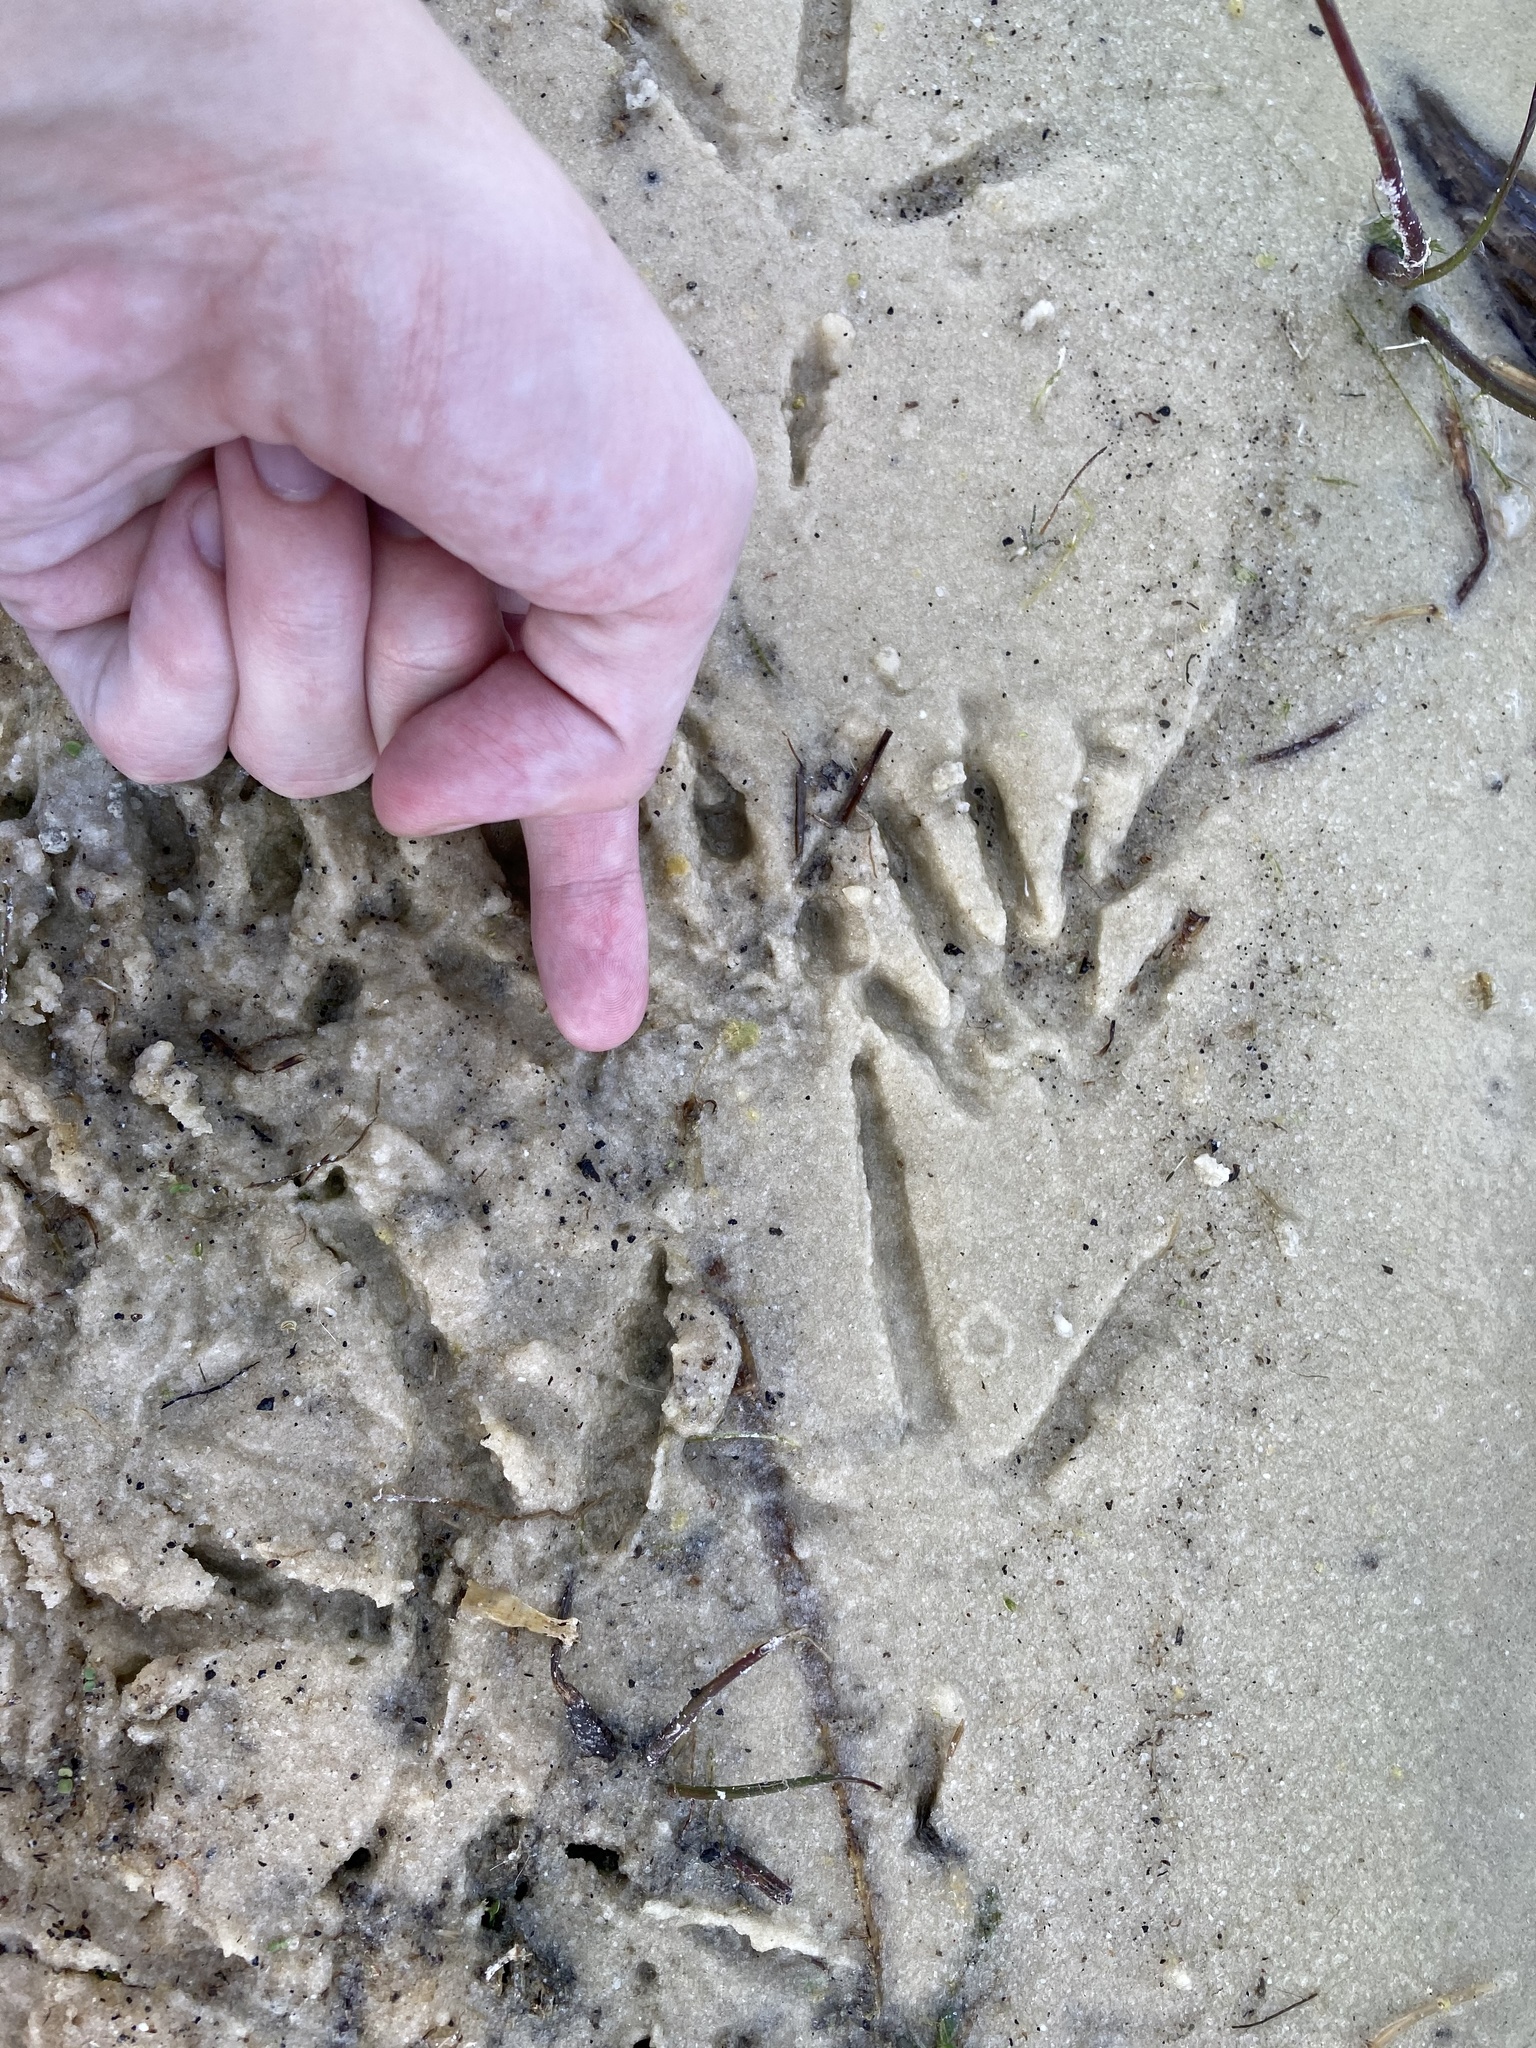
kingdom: Animalia
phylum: Chordata
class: Mammalia
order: Carnivora
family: Procyonidae
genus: Procyon
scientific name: Procyon lotor
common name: Raccoon
